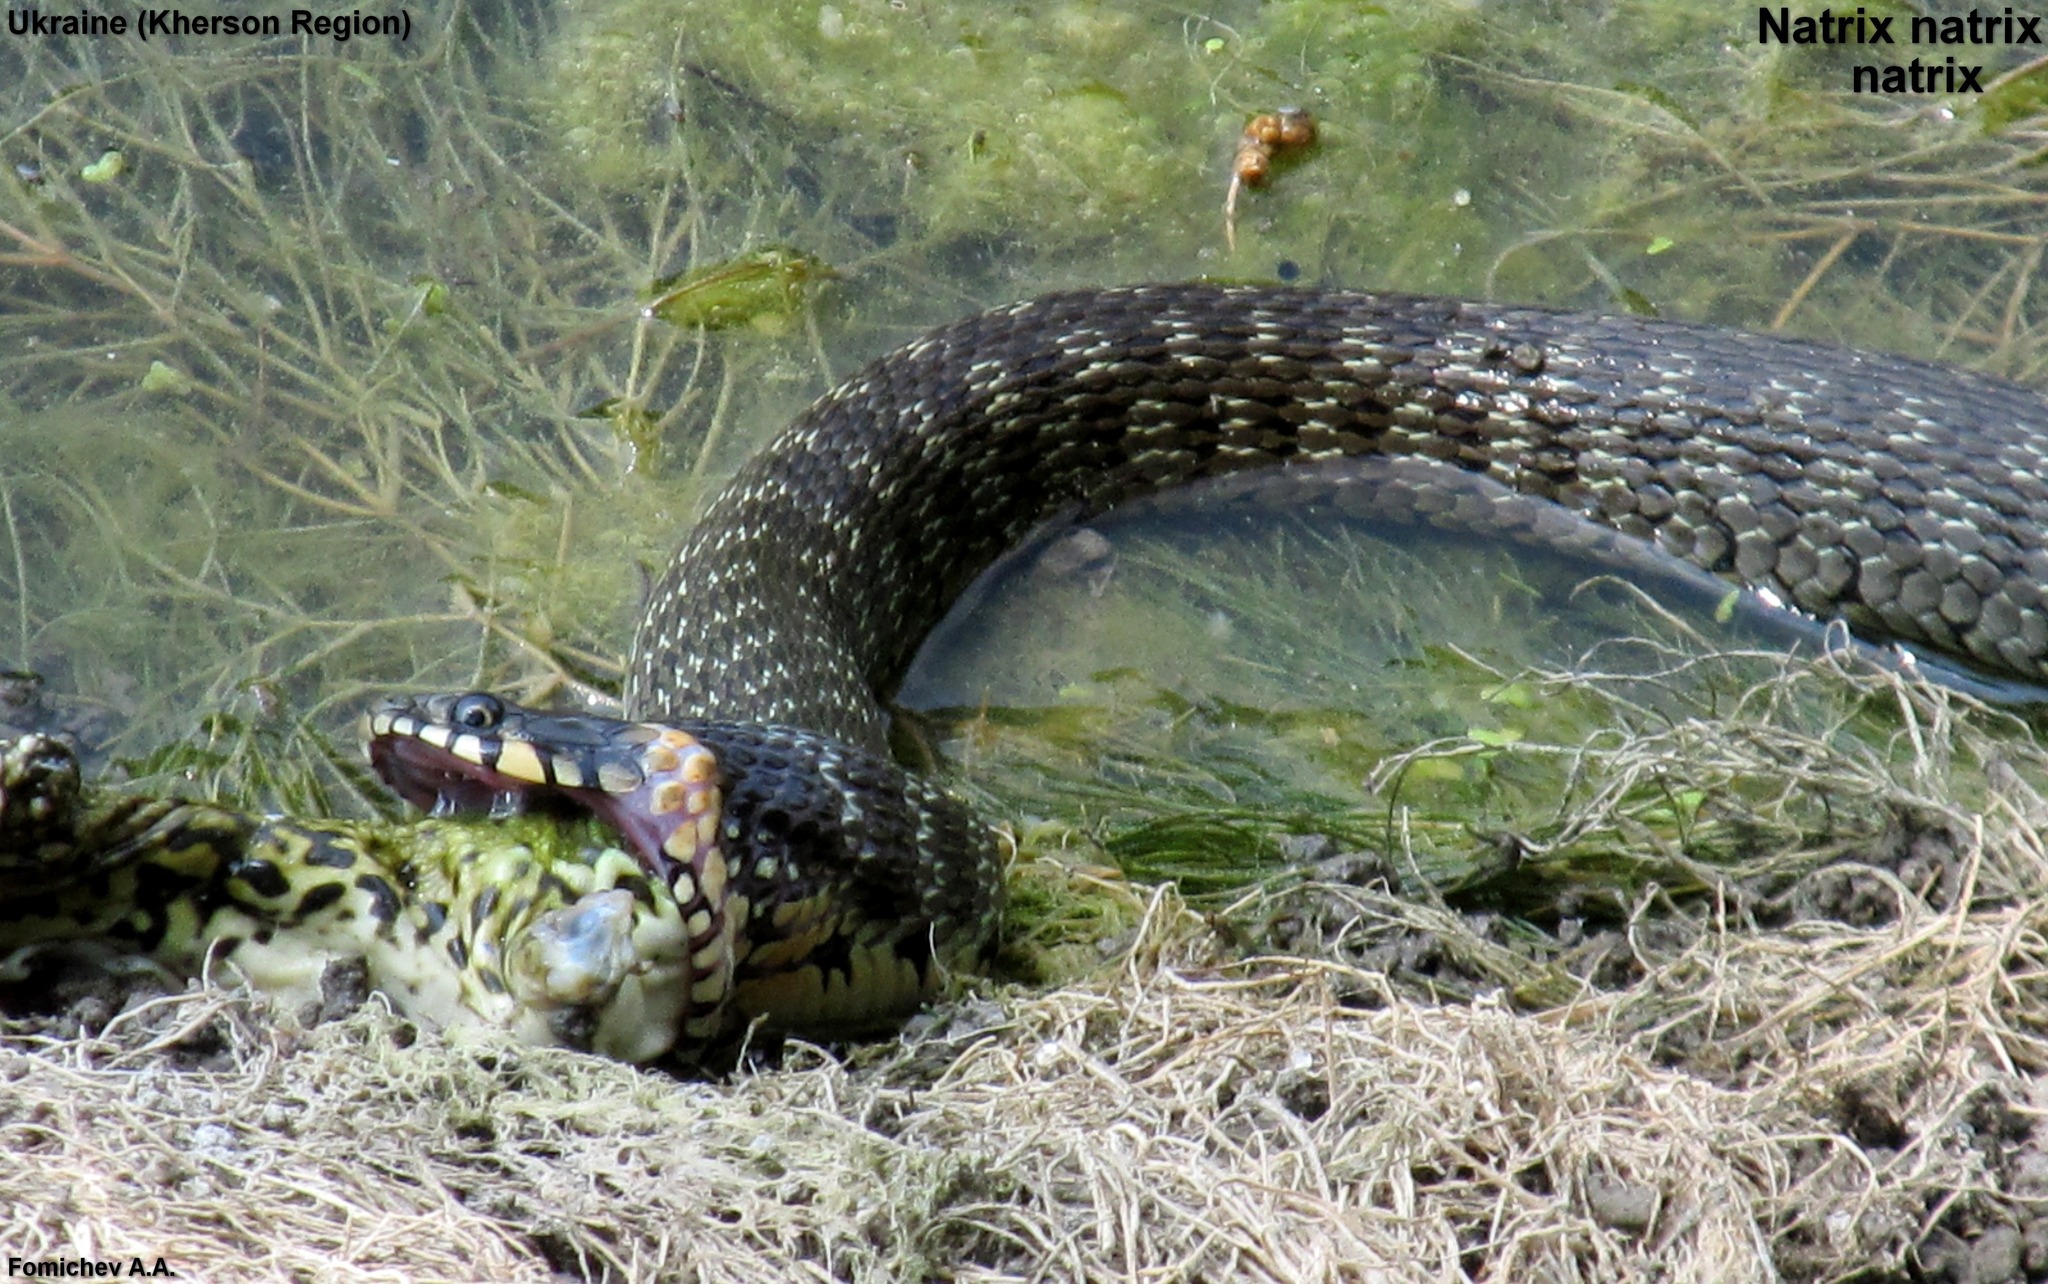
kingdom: Animalia
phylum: Chordata
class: Squamata
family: Colubridae
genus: Natrix
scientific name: Natrix natrix
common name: Grass snake
